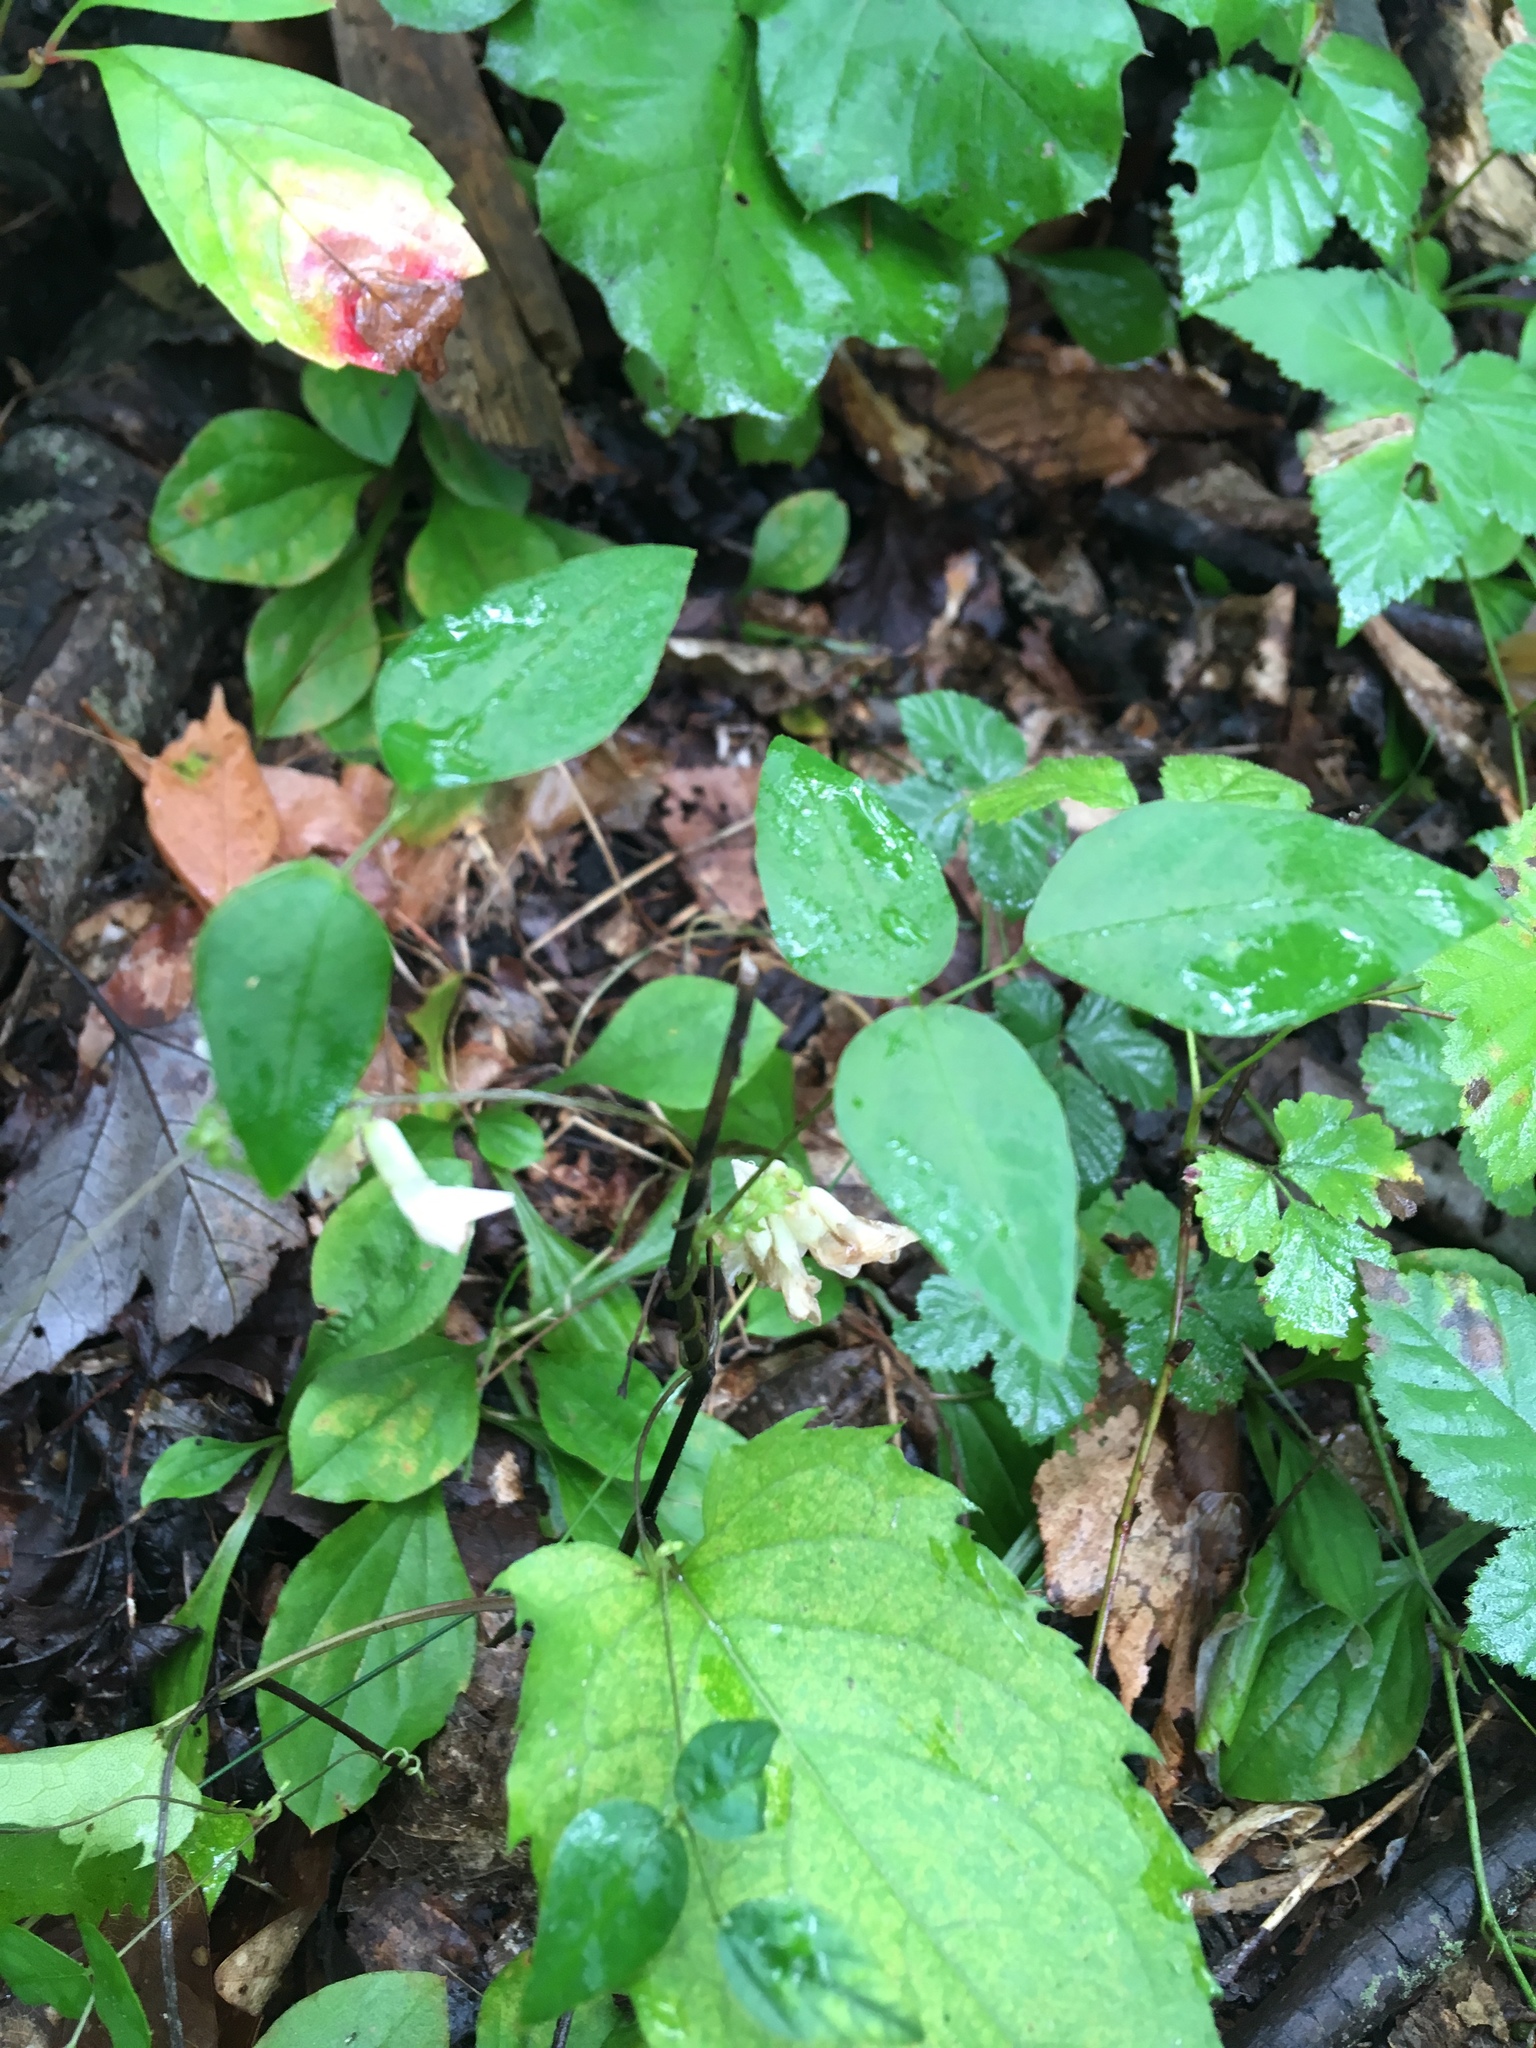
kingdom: Plantae
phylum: Tracheophyta
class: Magnoliopsida
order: Fabales
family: Fabaceae
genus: Amphicarpaea
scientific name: Amphicarpaea bracteata
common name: American hog peanut
